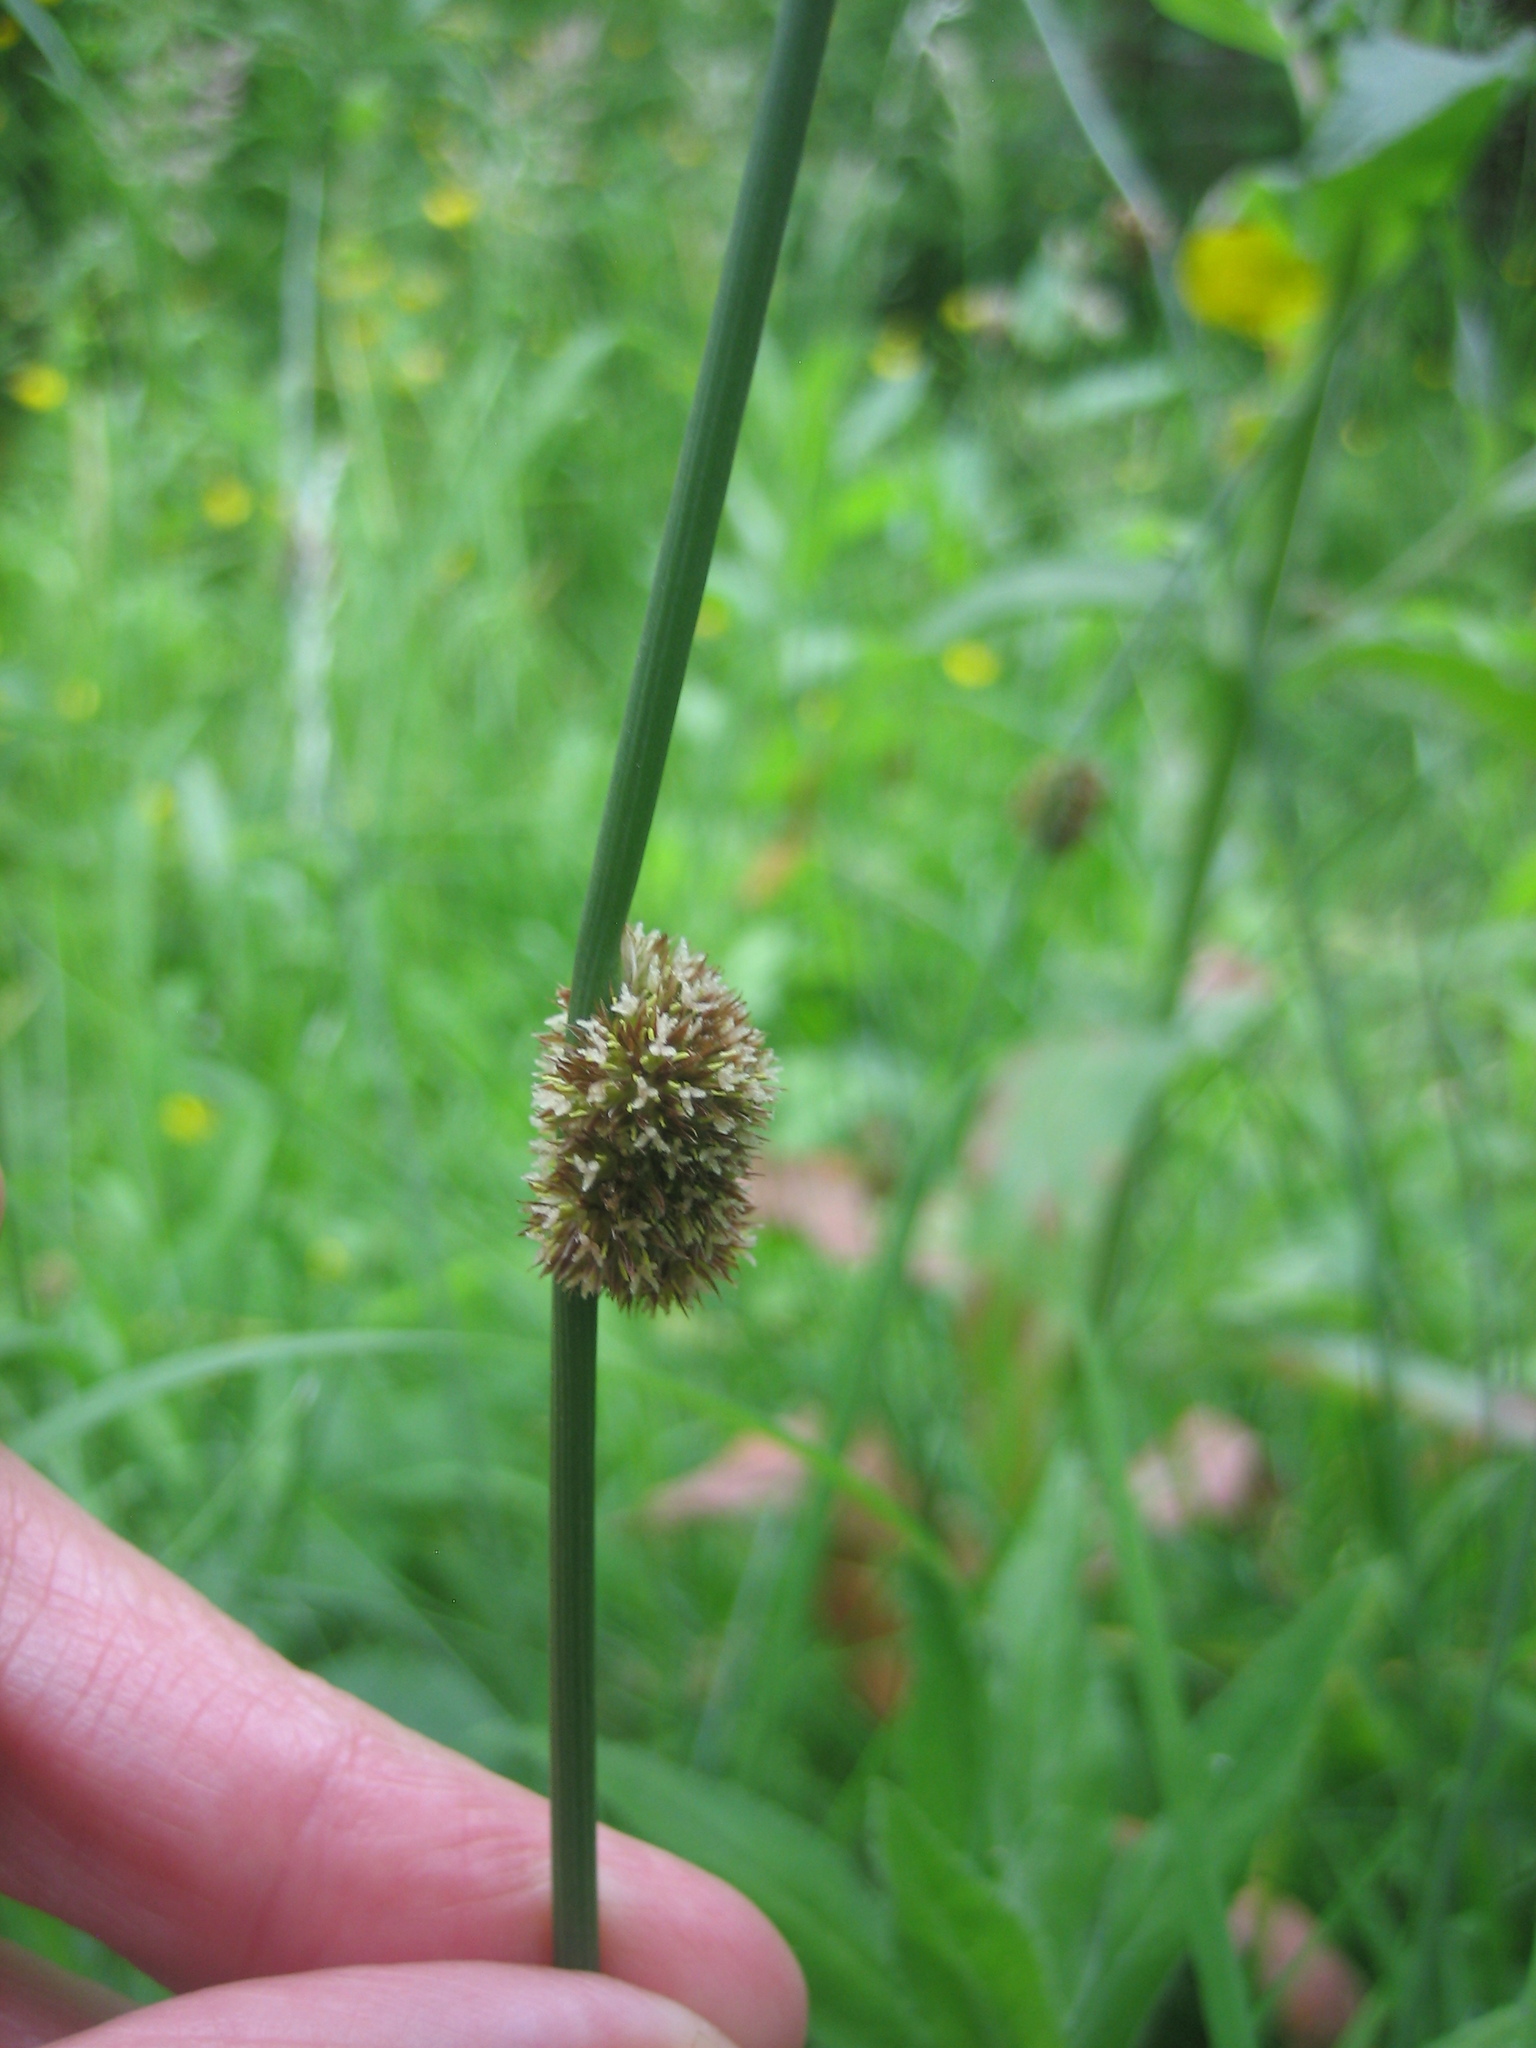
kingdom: Plantae
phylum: Tracheophyta
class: Liliopsida
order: Poales
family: Juncaceae
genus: Juncus
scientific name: Juncus conglomeratus
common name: Compact rush
